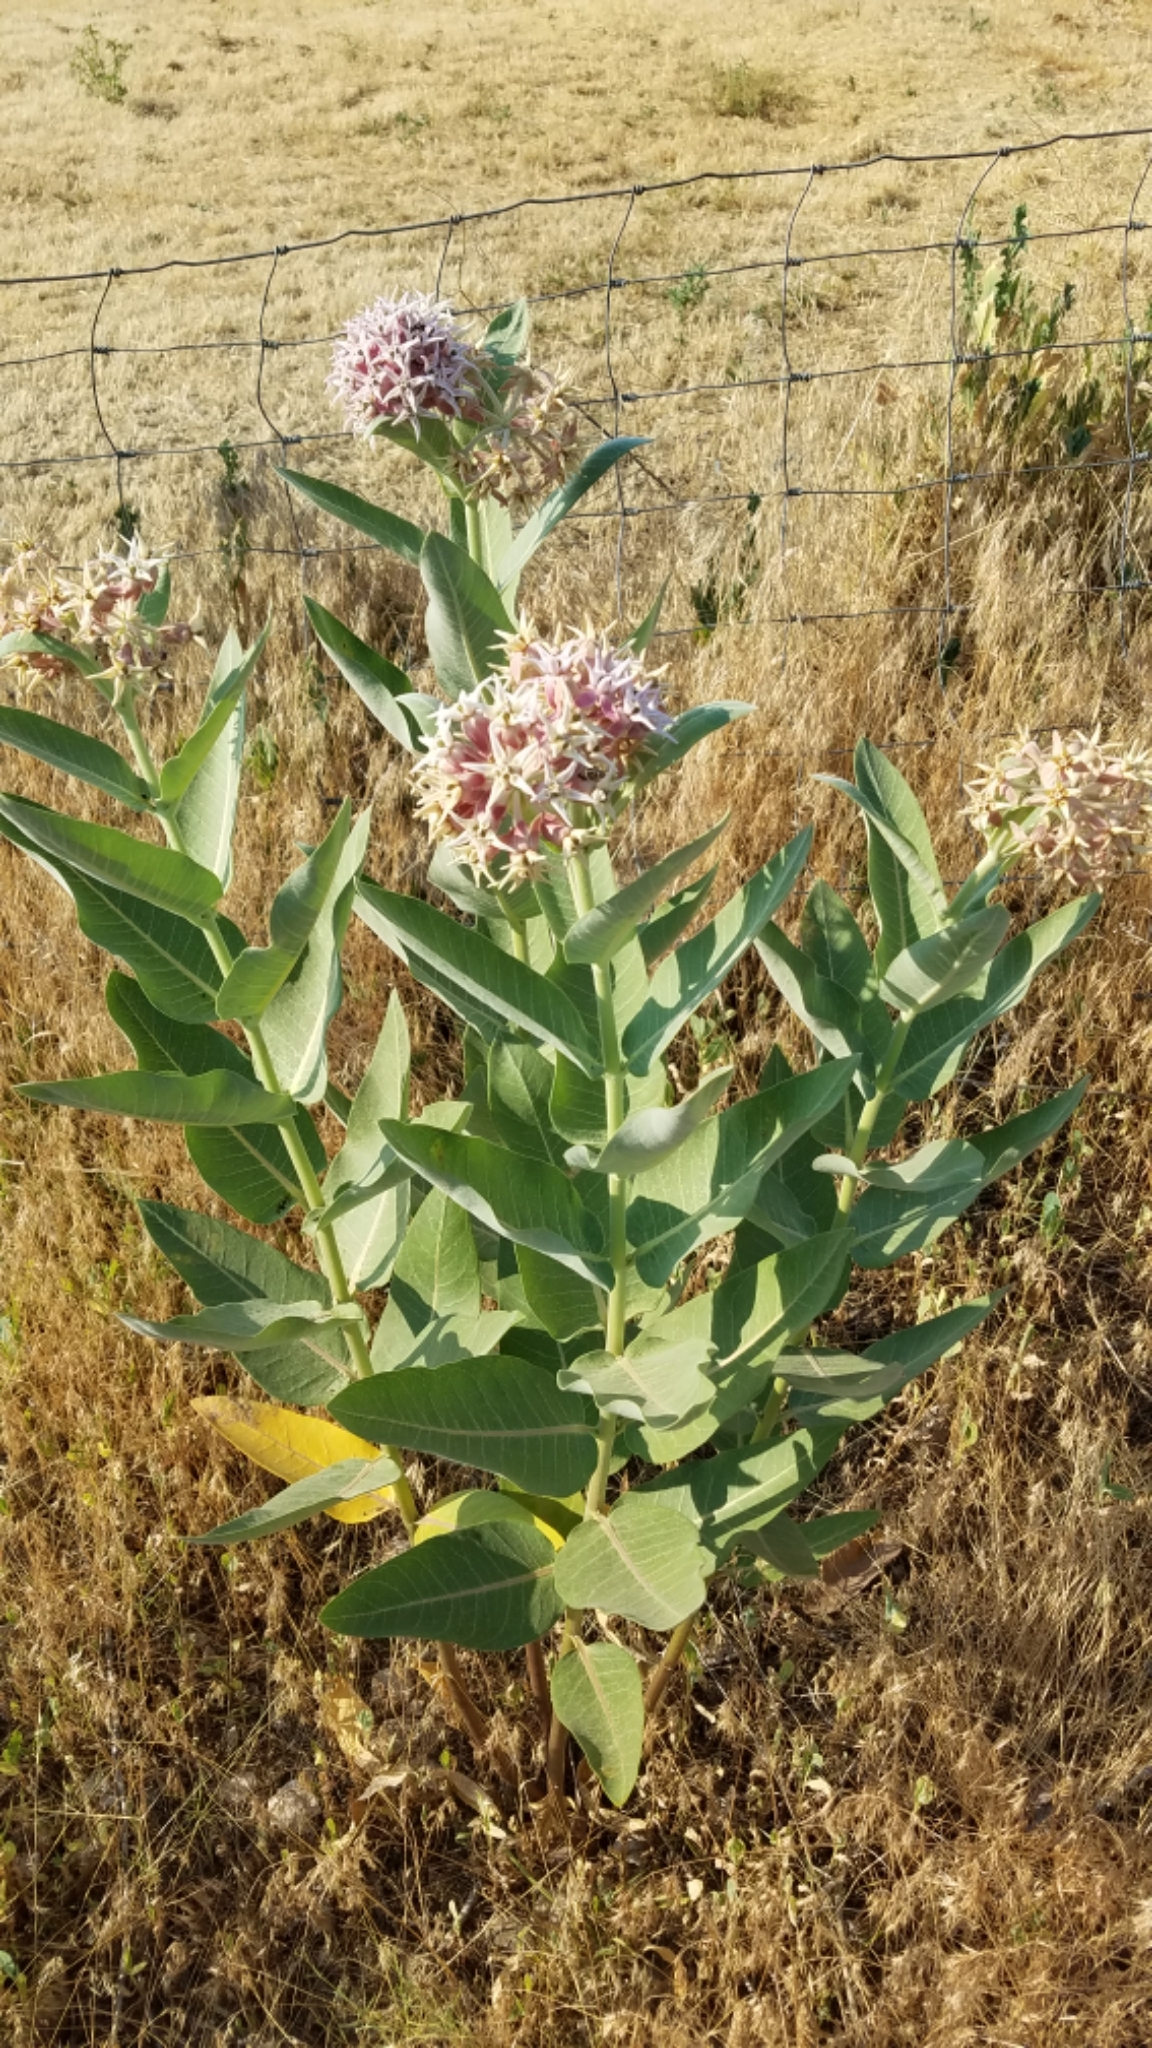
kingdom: Plantae
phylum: Tracheophyta
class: Magnoliopsida
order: Gentianales
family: Apocynaceae
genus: Asclepias
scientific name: Asclepias speciosa
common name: Showy milkweed
